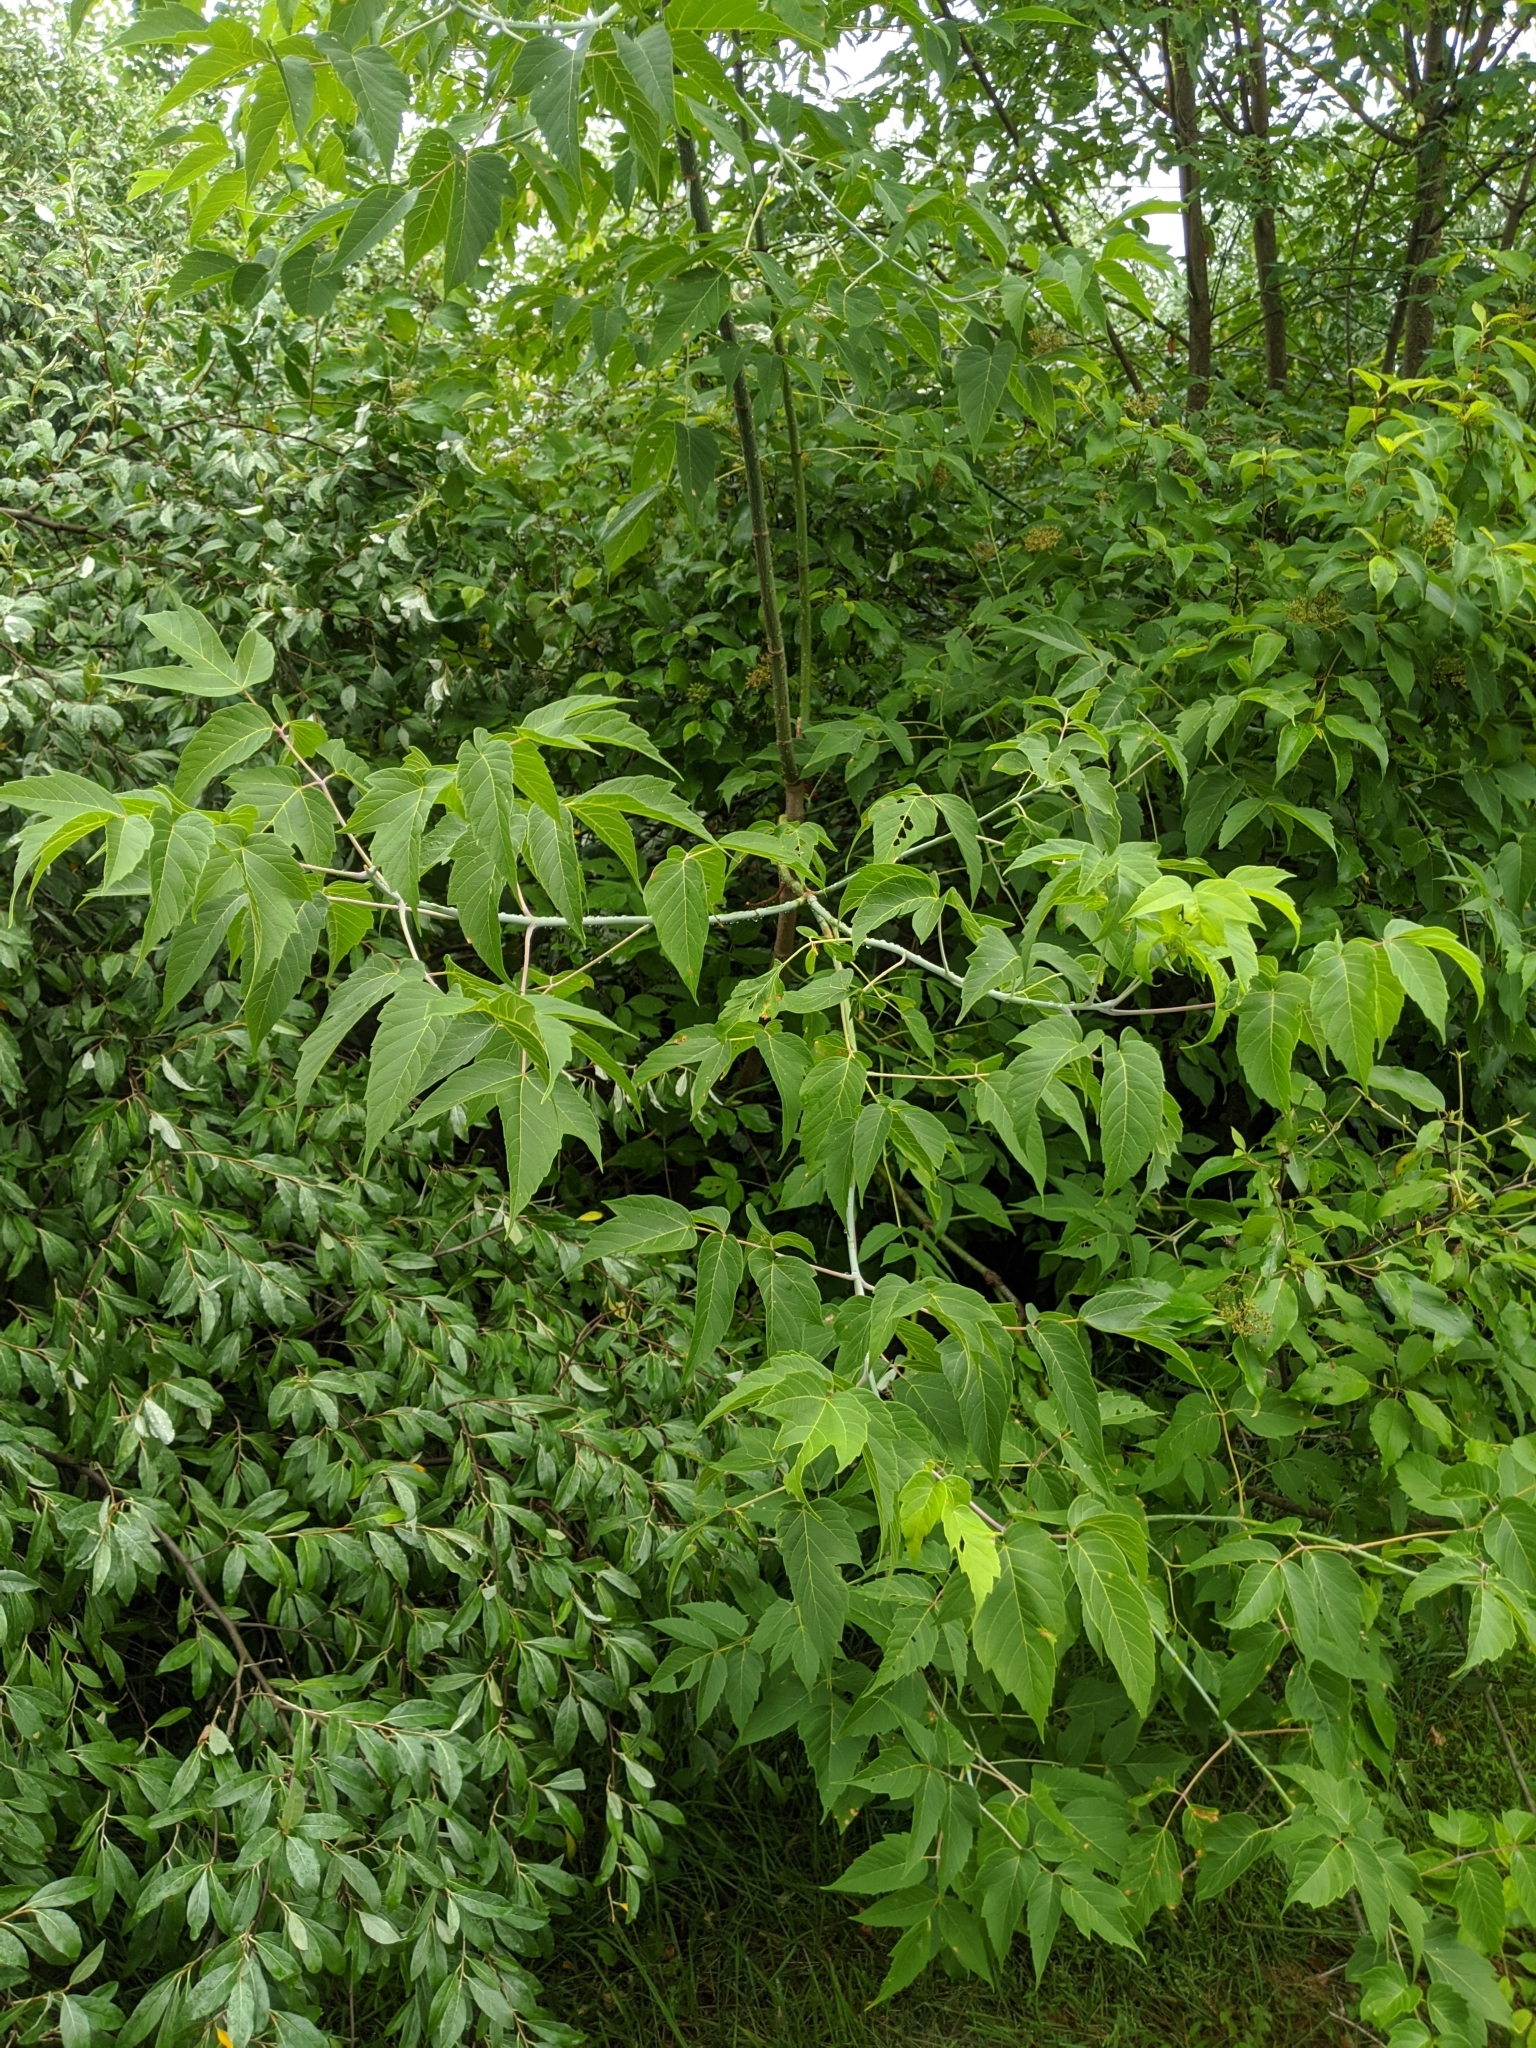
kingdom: Plantae
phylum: Tracheophyta
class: Magnoliopsida
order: Sapindales
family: Sapindaceae
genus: Acer
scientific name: Acer negundo
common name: Ashleaf maple
